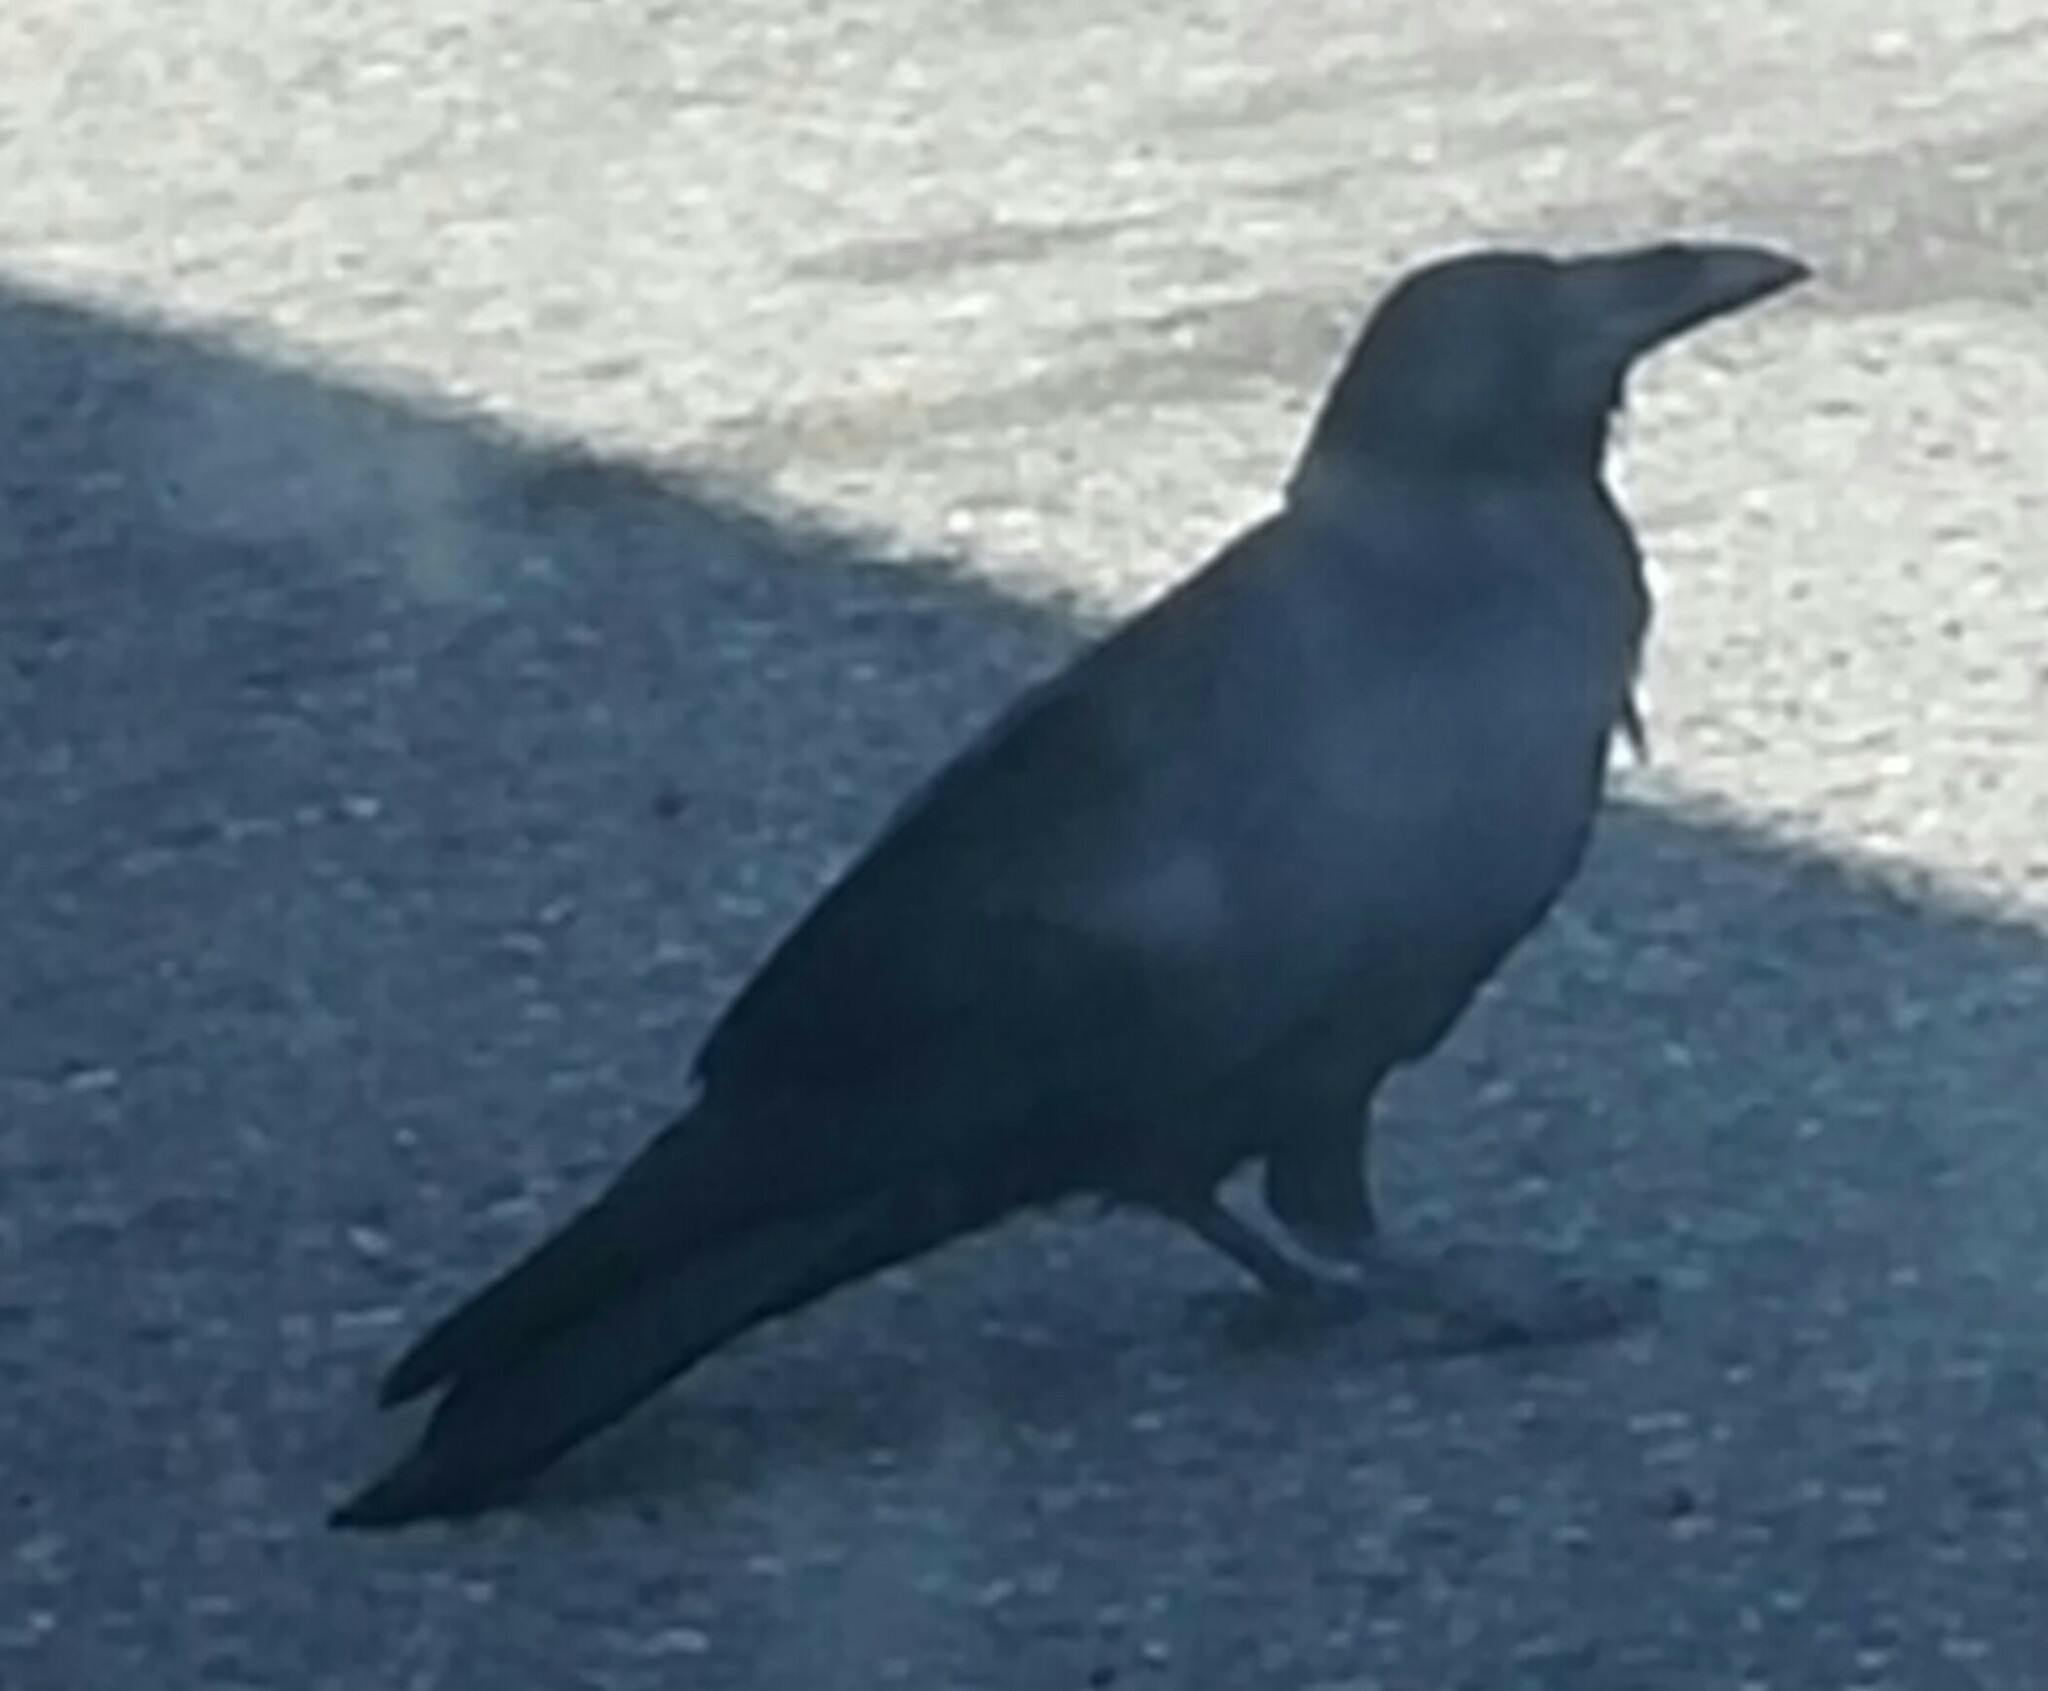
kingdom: Animalia
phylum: Chordata
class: Aves
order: Passeriformes
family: Corvidae
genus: Corvus
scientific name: Corvus corax
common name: Common raven
